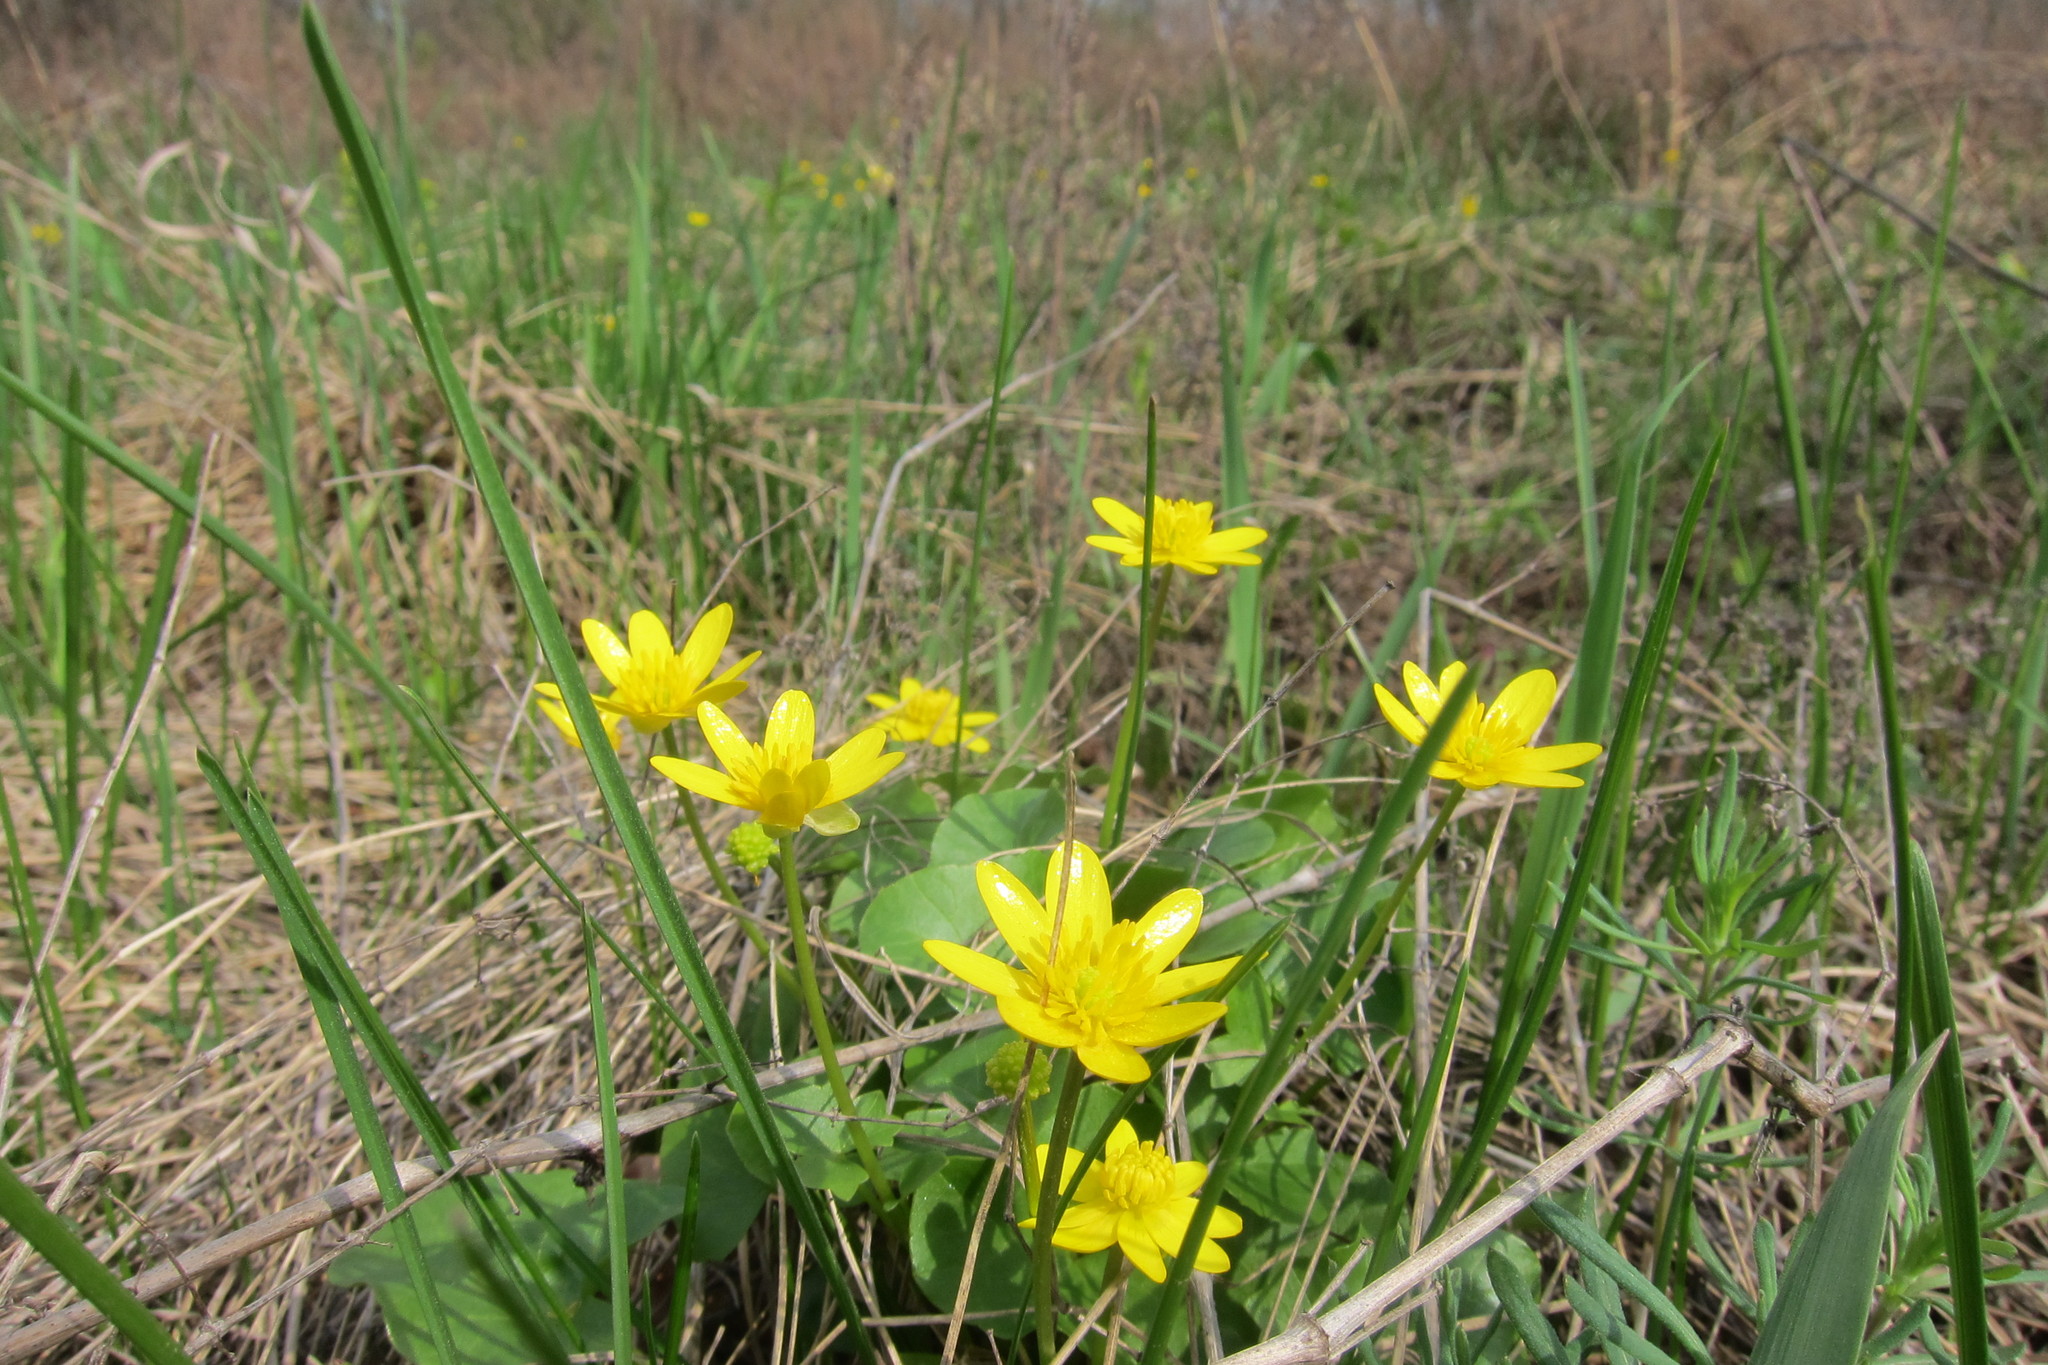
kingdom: Plantae
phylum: Tracheophyta
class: Magnoliopsida
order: Ranunculales
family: Ranunculaceae
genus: Ficaria
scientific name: Ficaria verna
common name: Lesser celandine
